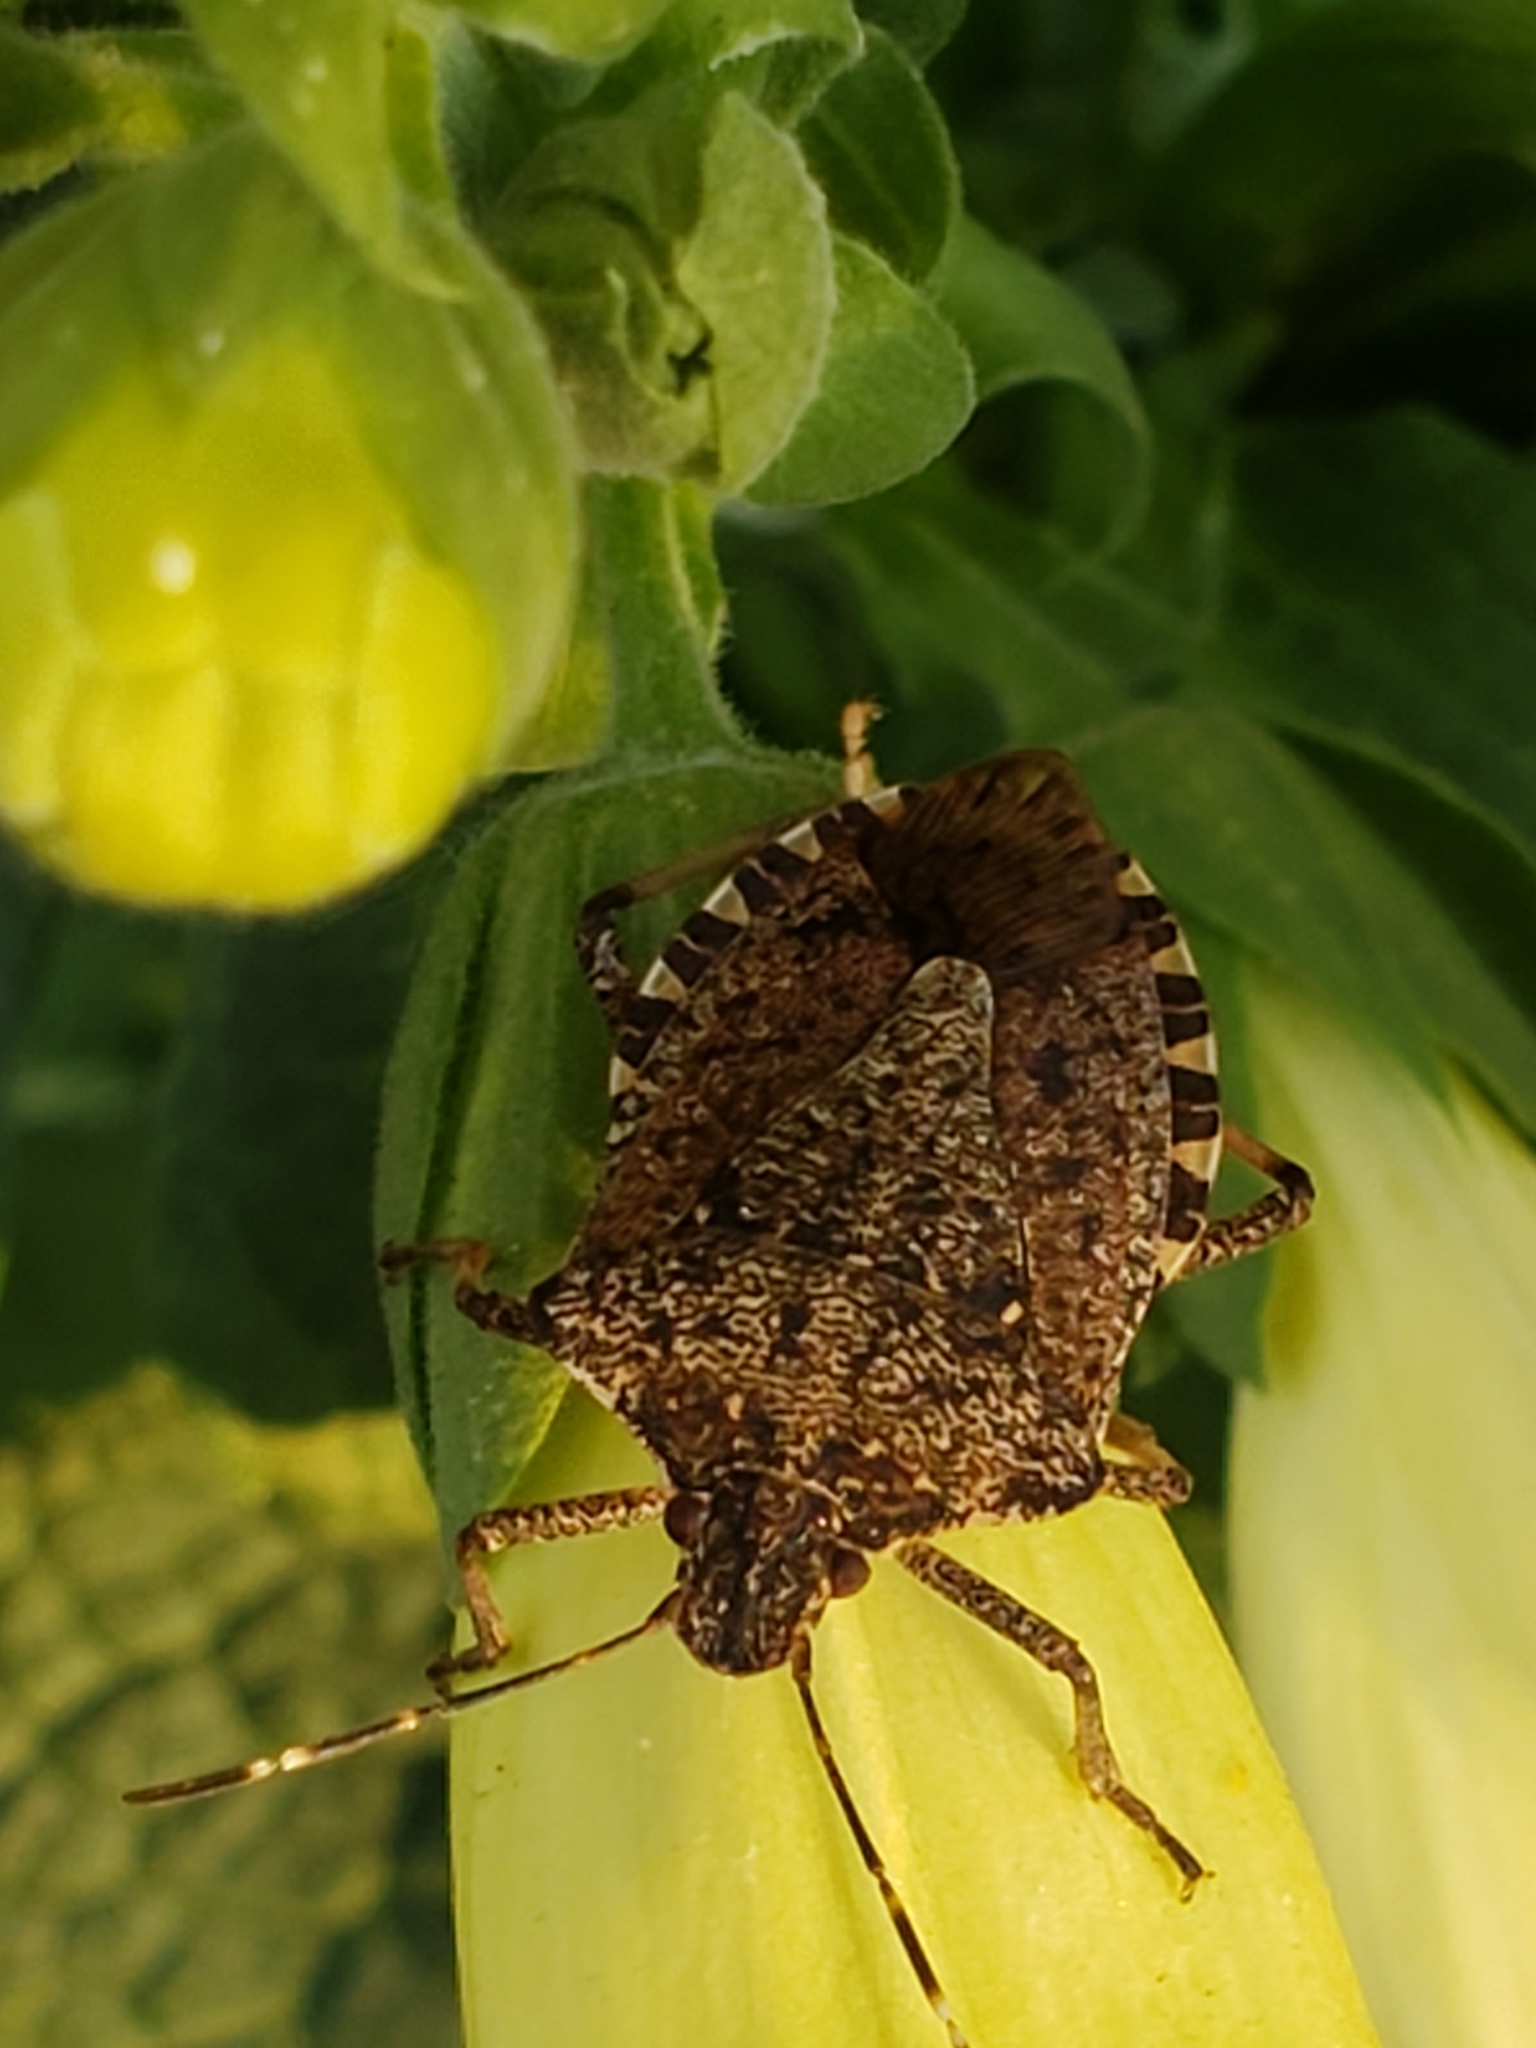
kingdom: Animalia
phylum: Arthropoda
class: Insecta
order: Hemiptera
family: Pentatomidae
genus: Halyomorpha
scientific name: Halyomorpha halys
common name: Brown marmorated stink bug
